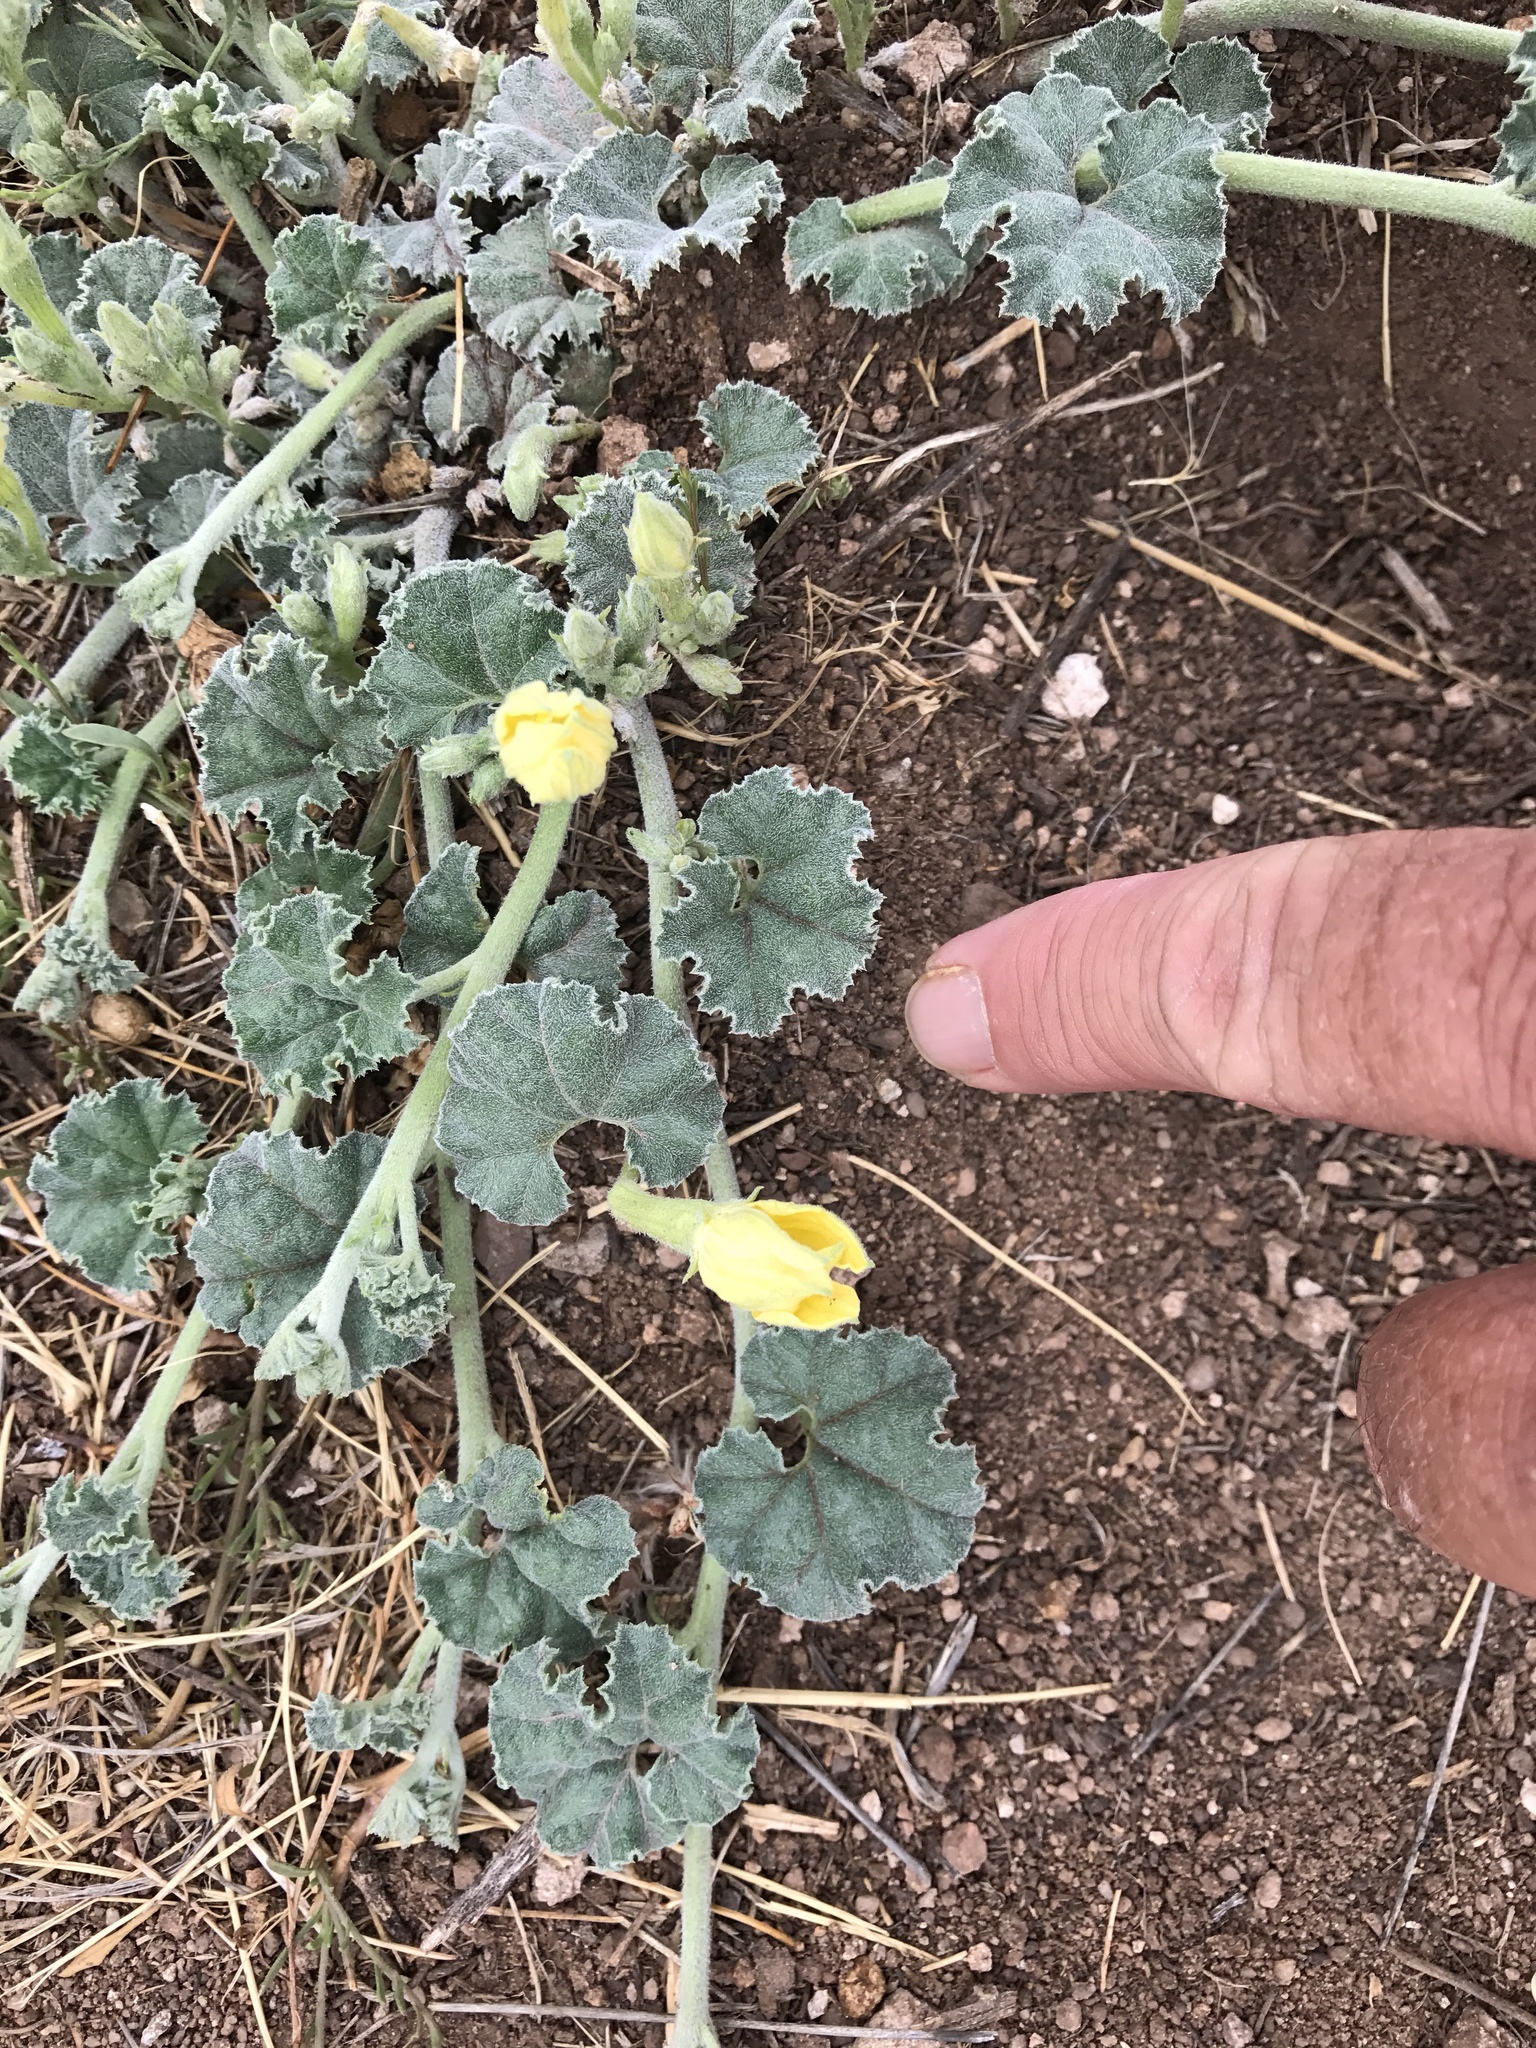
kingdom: Plantae
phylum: Tracheophyta
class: Magnoliopsida
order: Cucurbitales
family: Cucurbitaceae
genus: Apodanthera
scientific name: Apodanthera undulata
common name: Melon-loco
